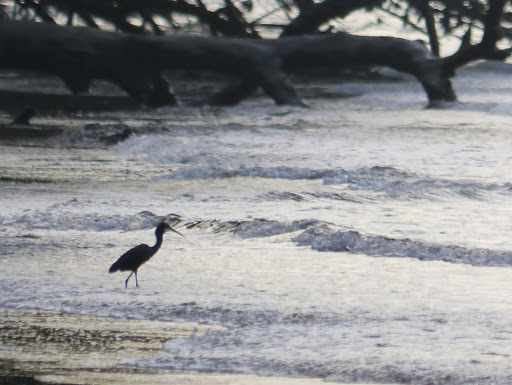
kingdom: Animalia
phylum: Chordata
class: Aves
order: Pelecaniformes
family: Ardeidae
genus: Egretta
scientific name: Egretta gularis
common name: Western reef-heron
